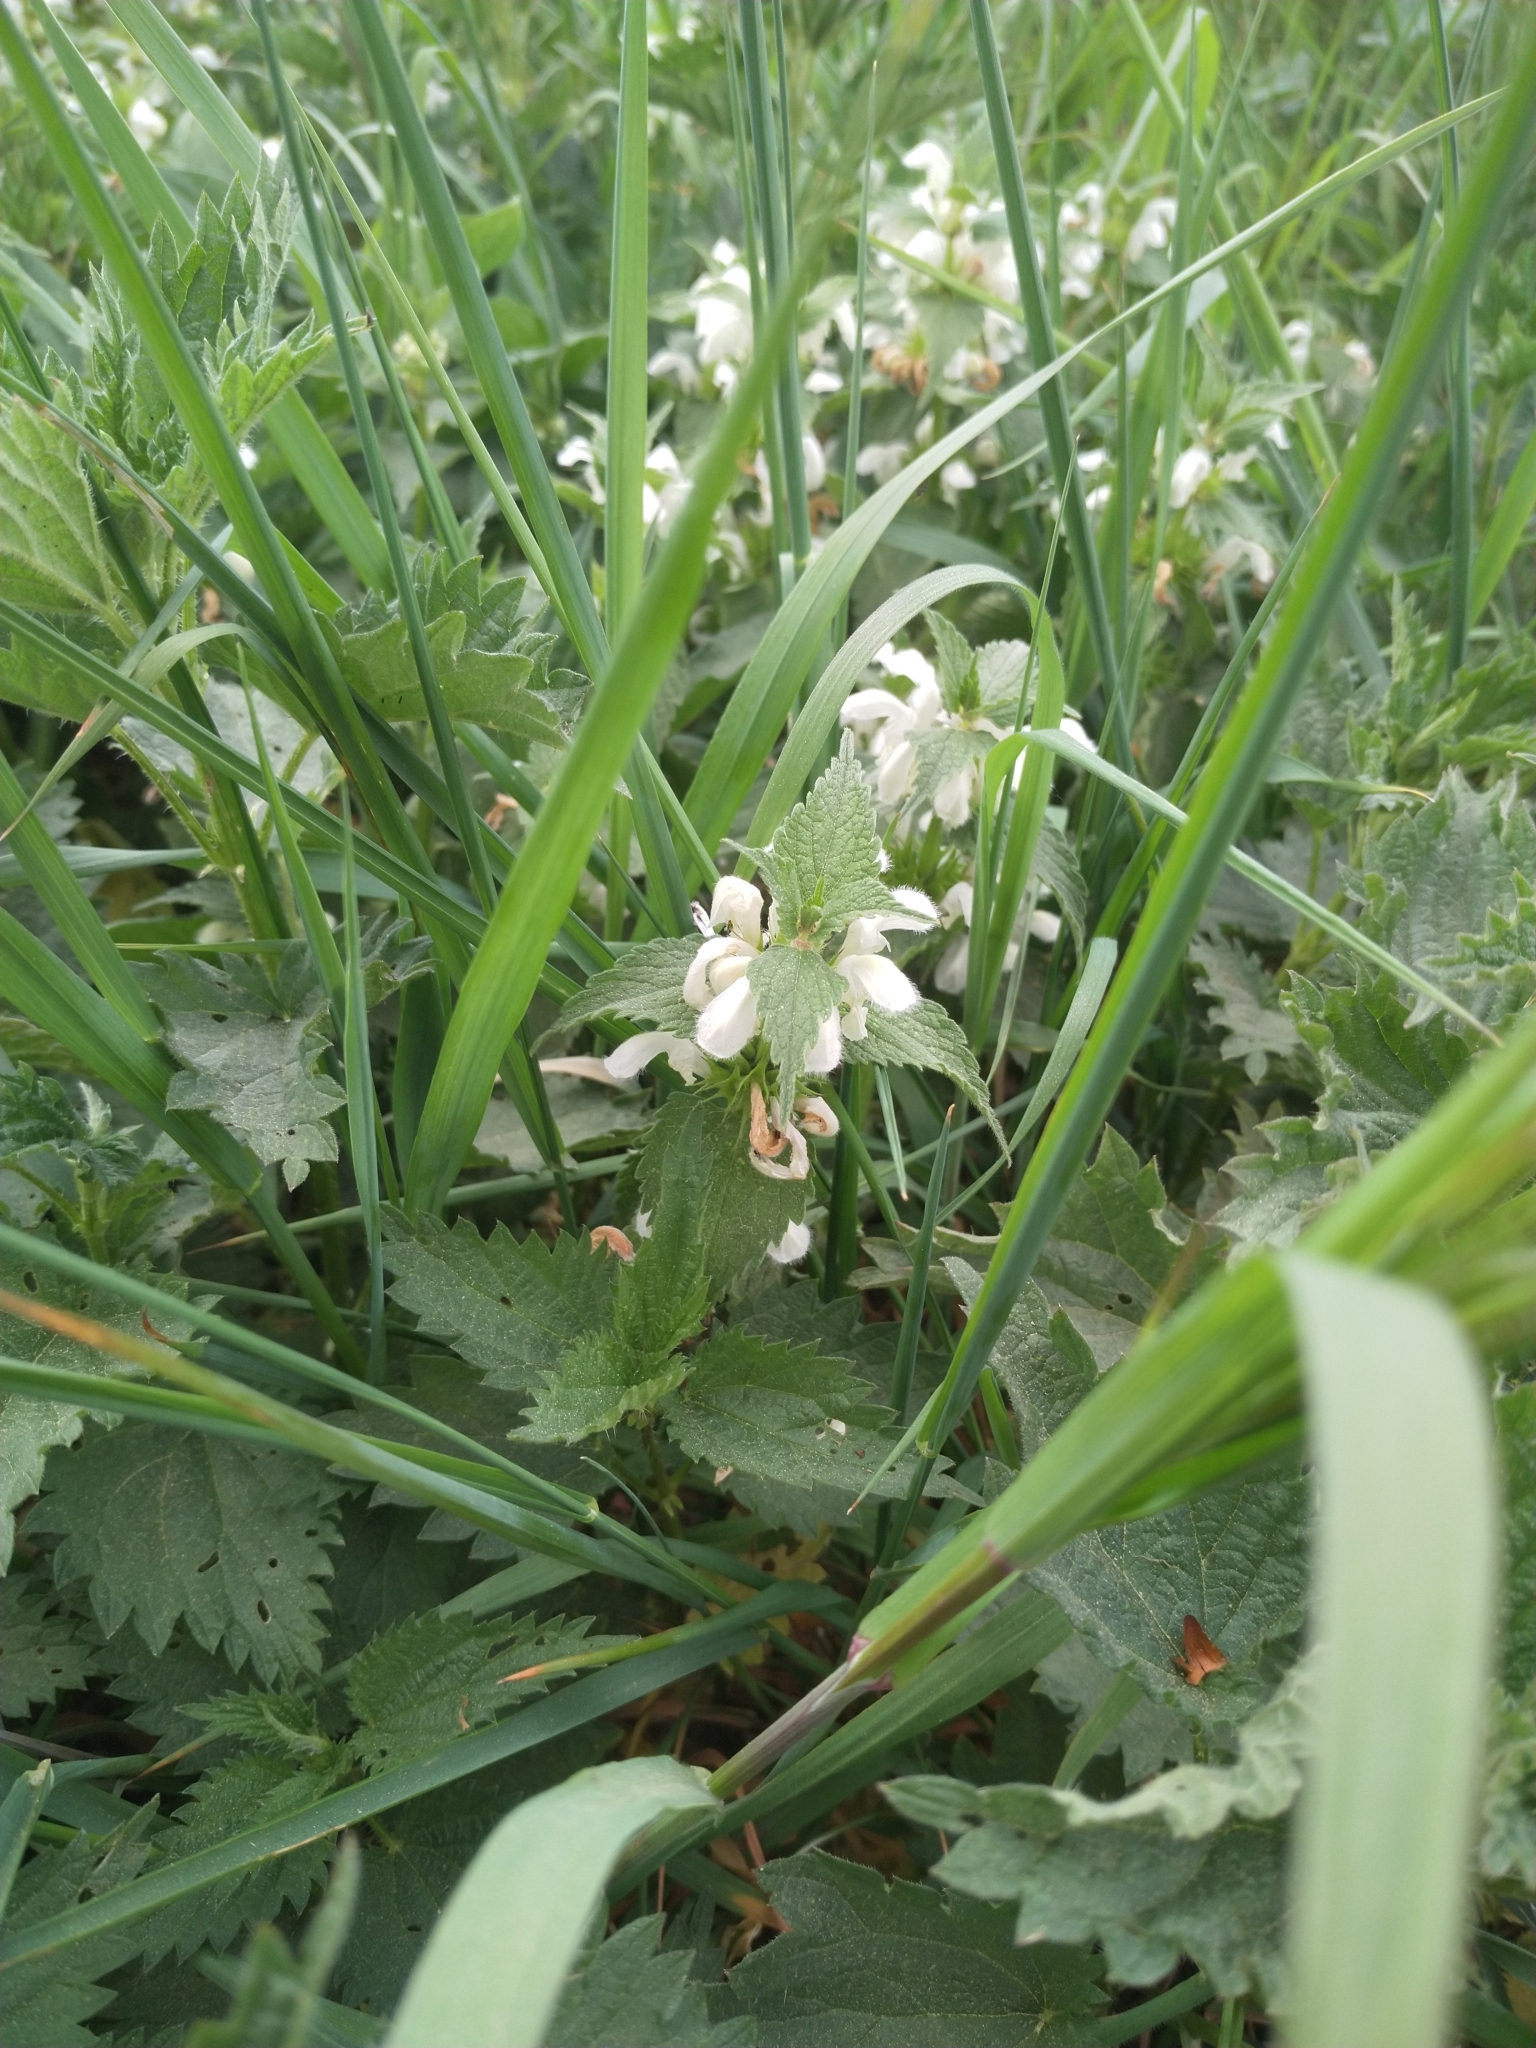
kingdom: Plantae
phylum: Tracheophyta
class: Magnoliopsida
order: Lamiales
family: Lamiaceae
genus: Lamium
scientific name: Lamium album
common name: White dead-nettle
